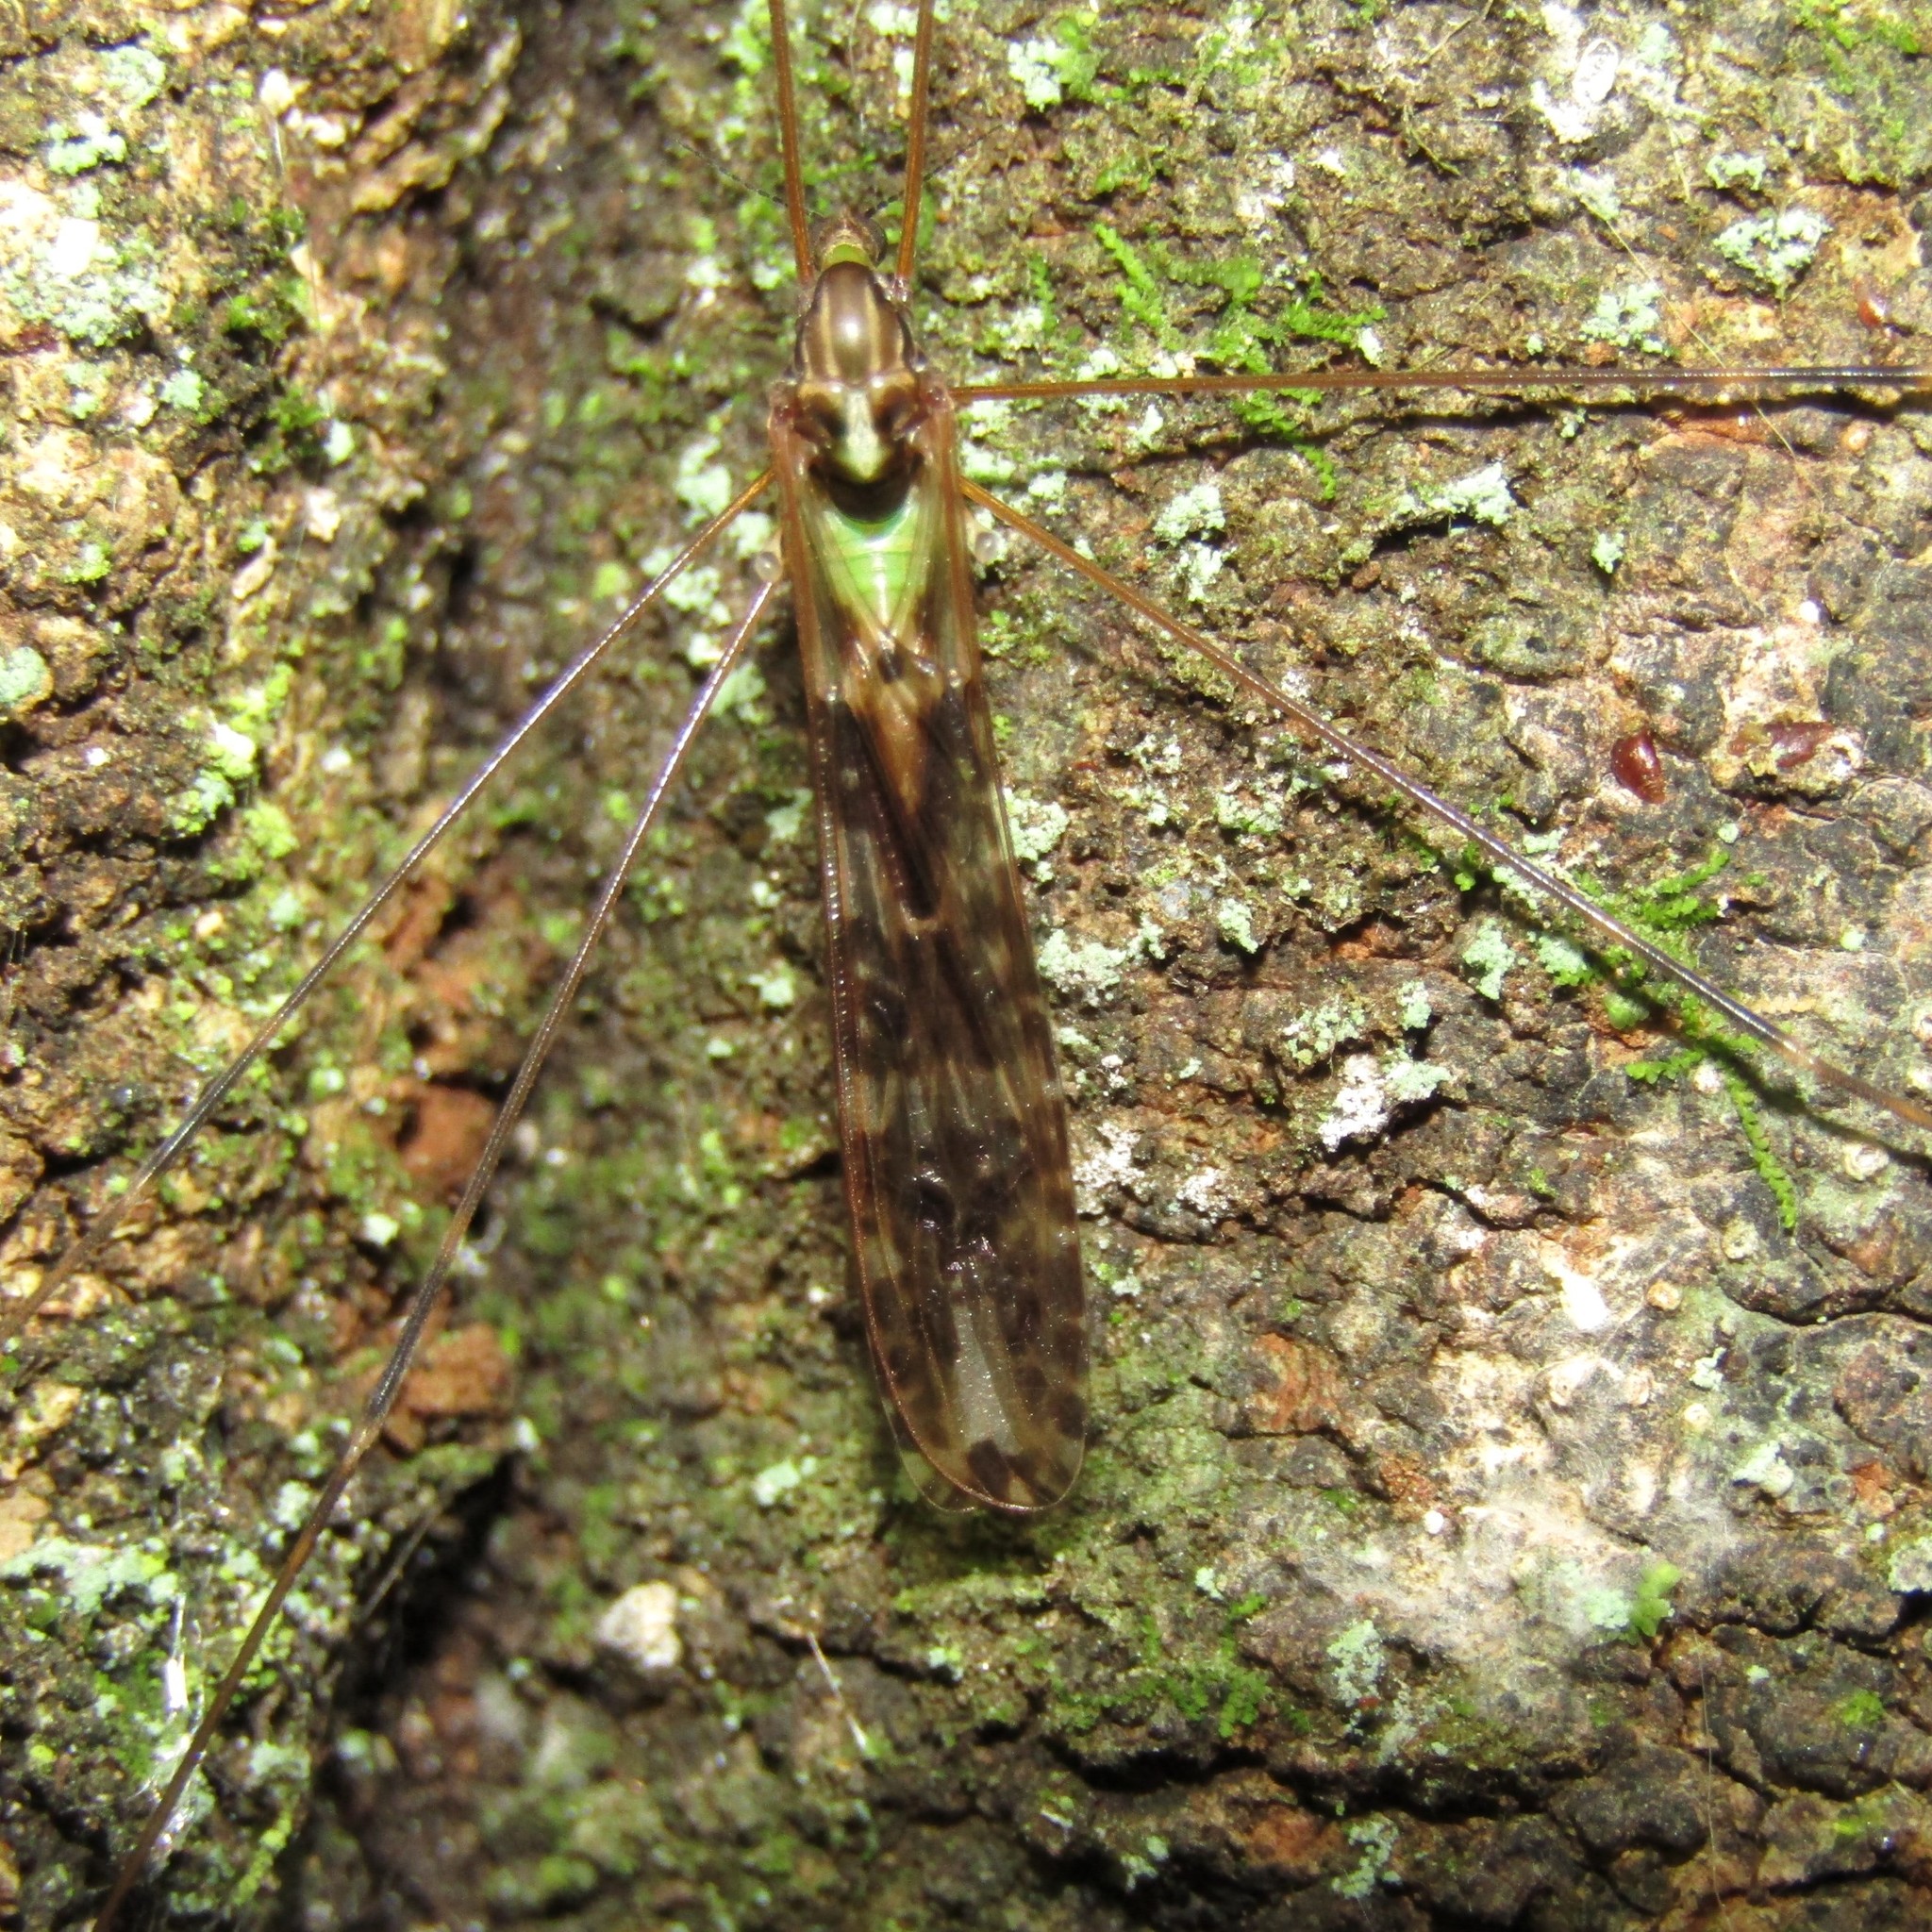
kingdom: Animalia
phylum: Arthropoda
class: Insecta
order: Diptera
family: Limoniidae
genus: Discobola
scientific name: Discobola dohrni
